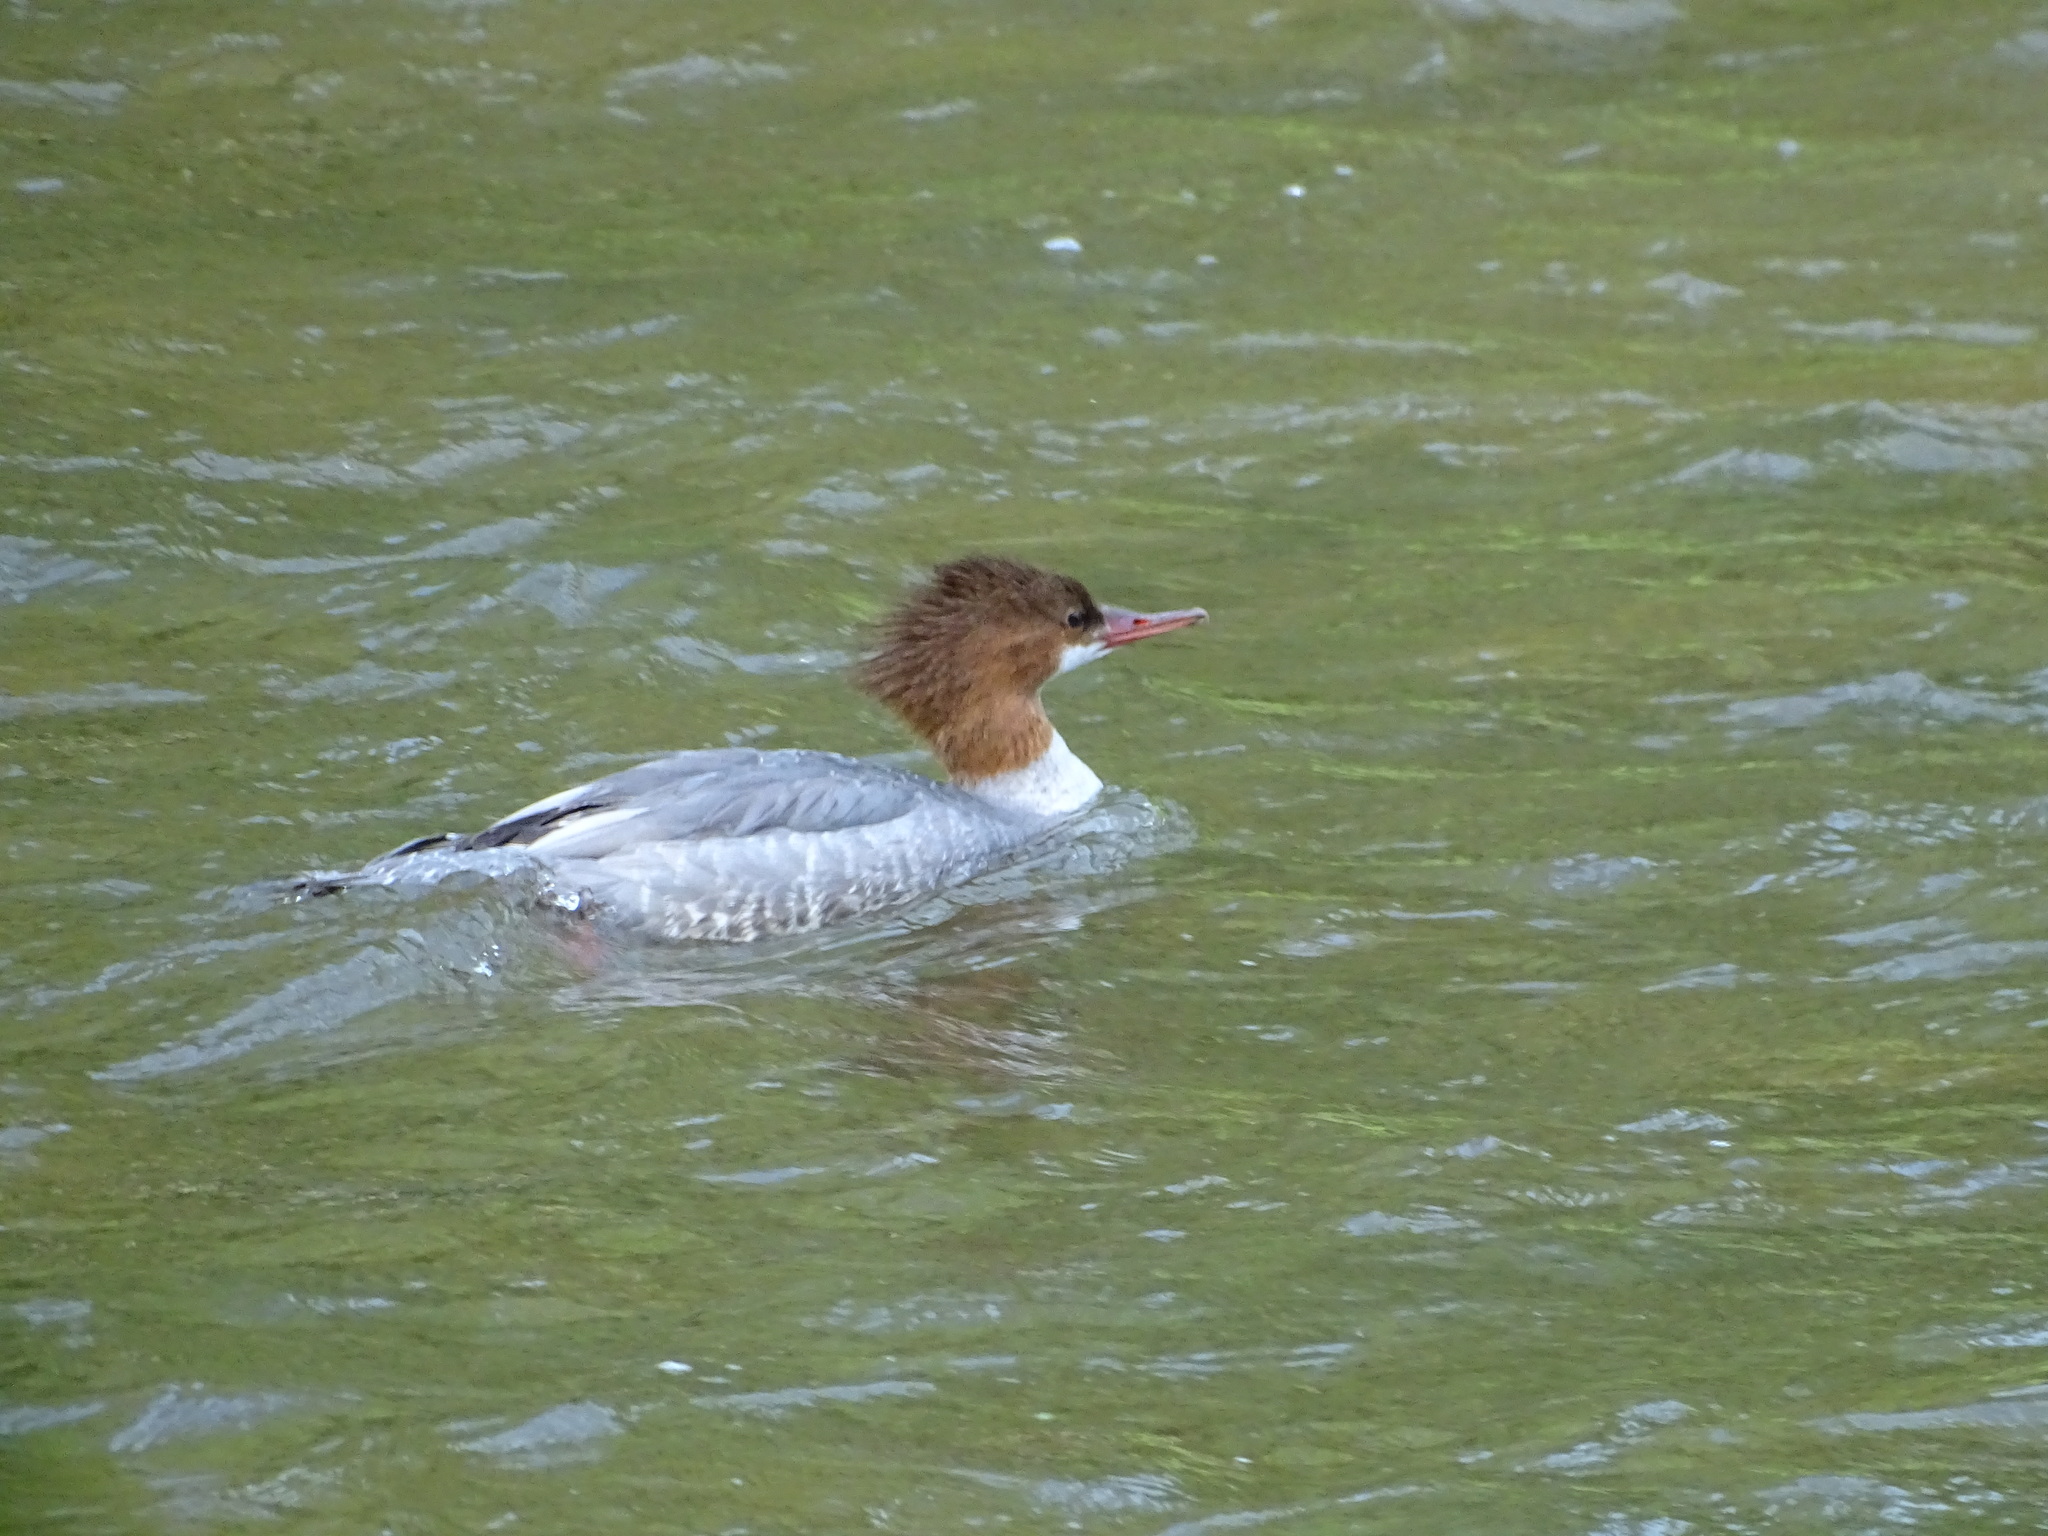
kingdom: Animalia
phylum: Chordata
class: Aves
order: Anseriformes
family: Anatidae
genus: Mergus
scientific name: Mergus merganser
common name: Common merganser
